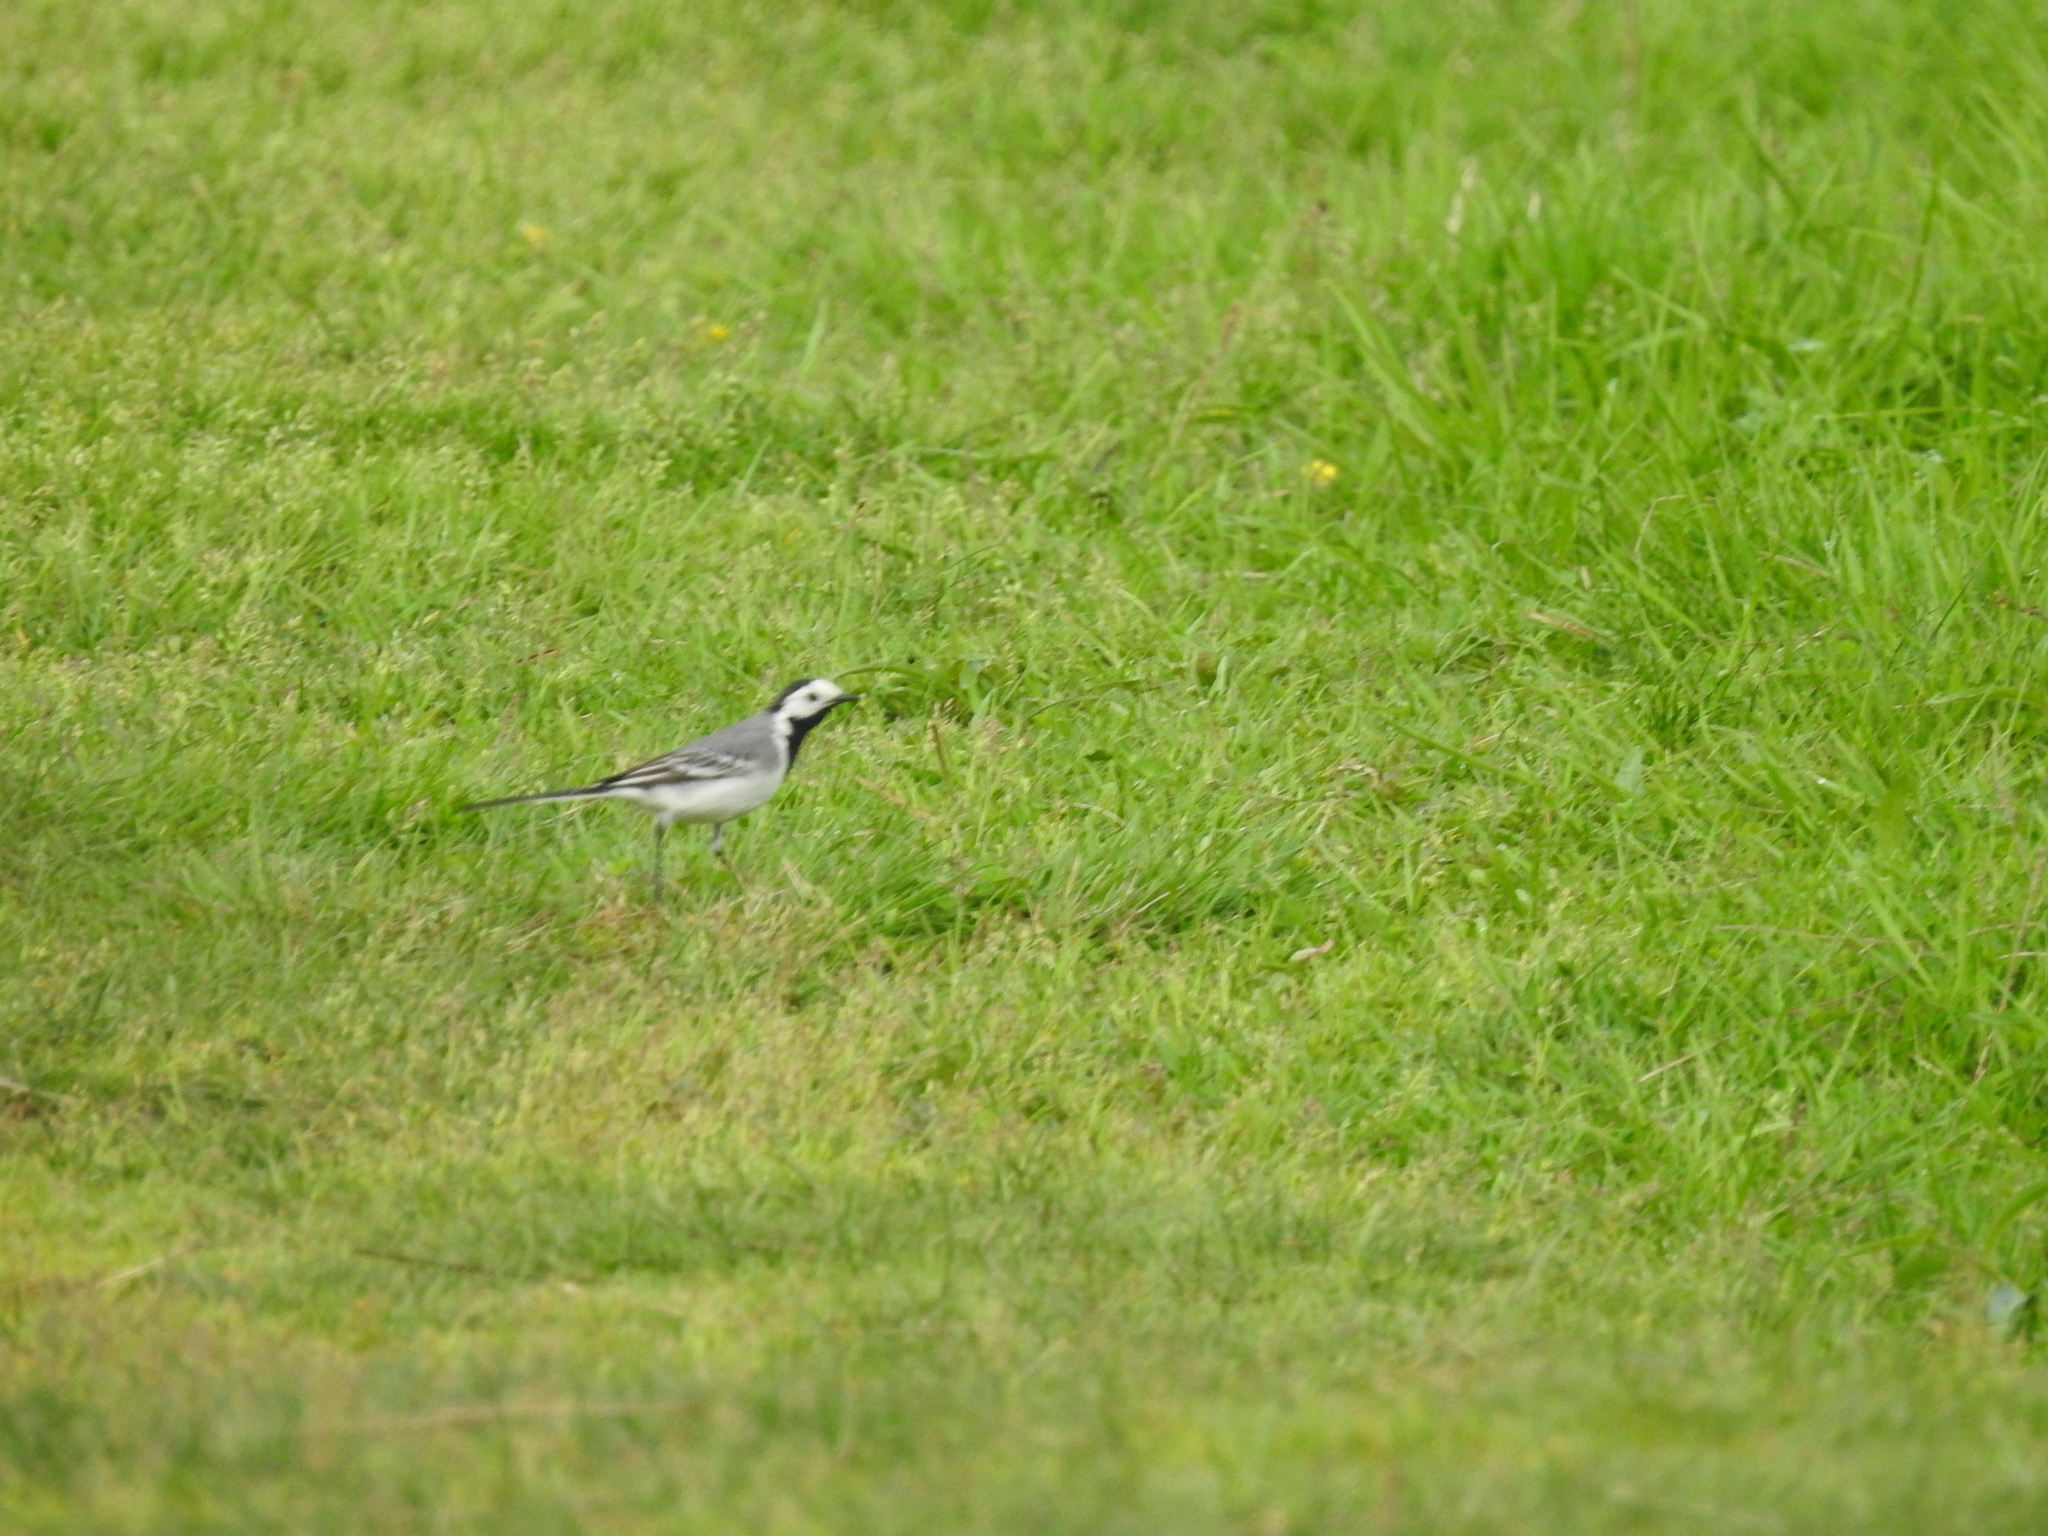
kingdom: Animalia
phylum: Chordata
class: Aves
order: Passeriformes
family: Motacillidae
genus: Motacilla
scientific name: Motacilla alba
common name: White wagtail
